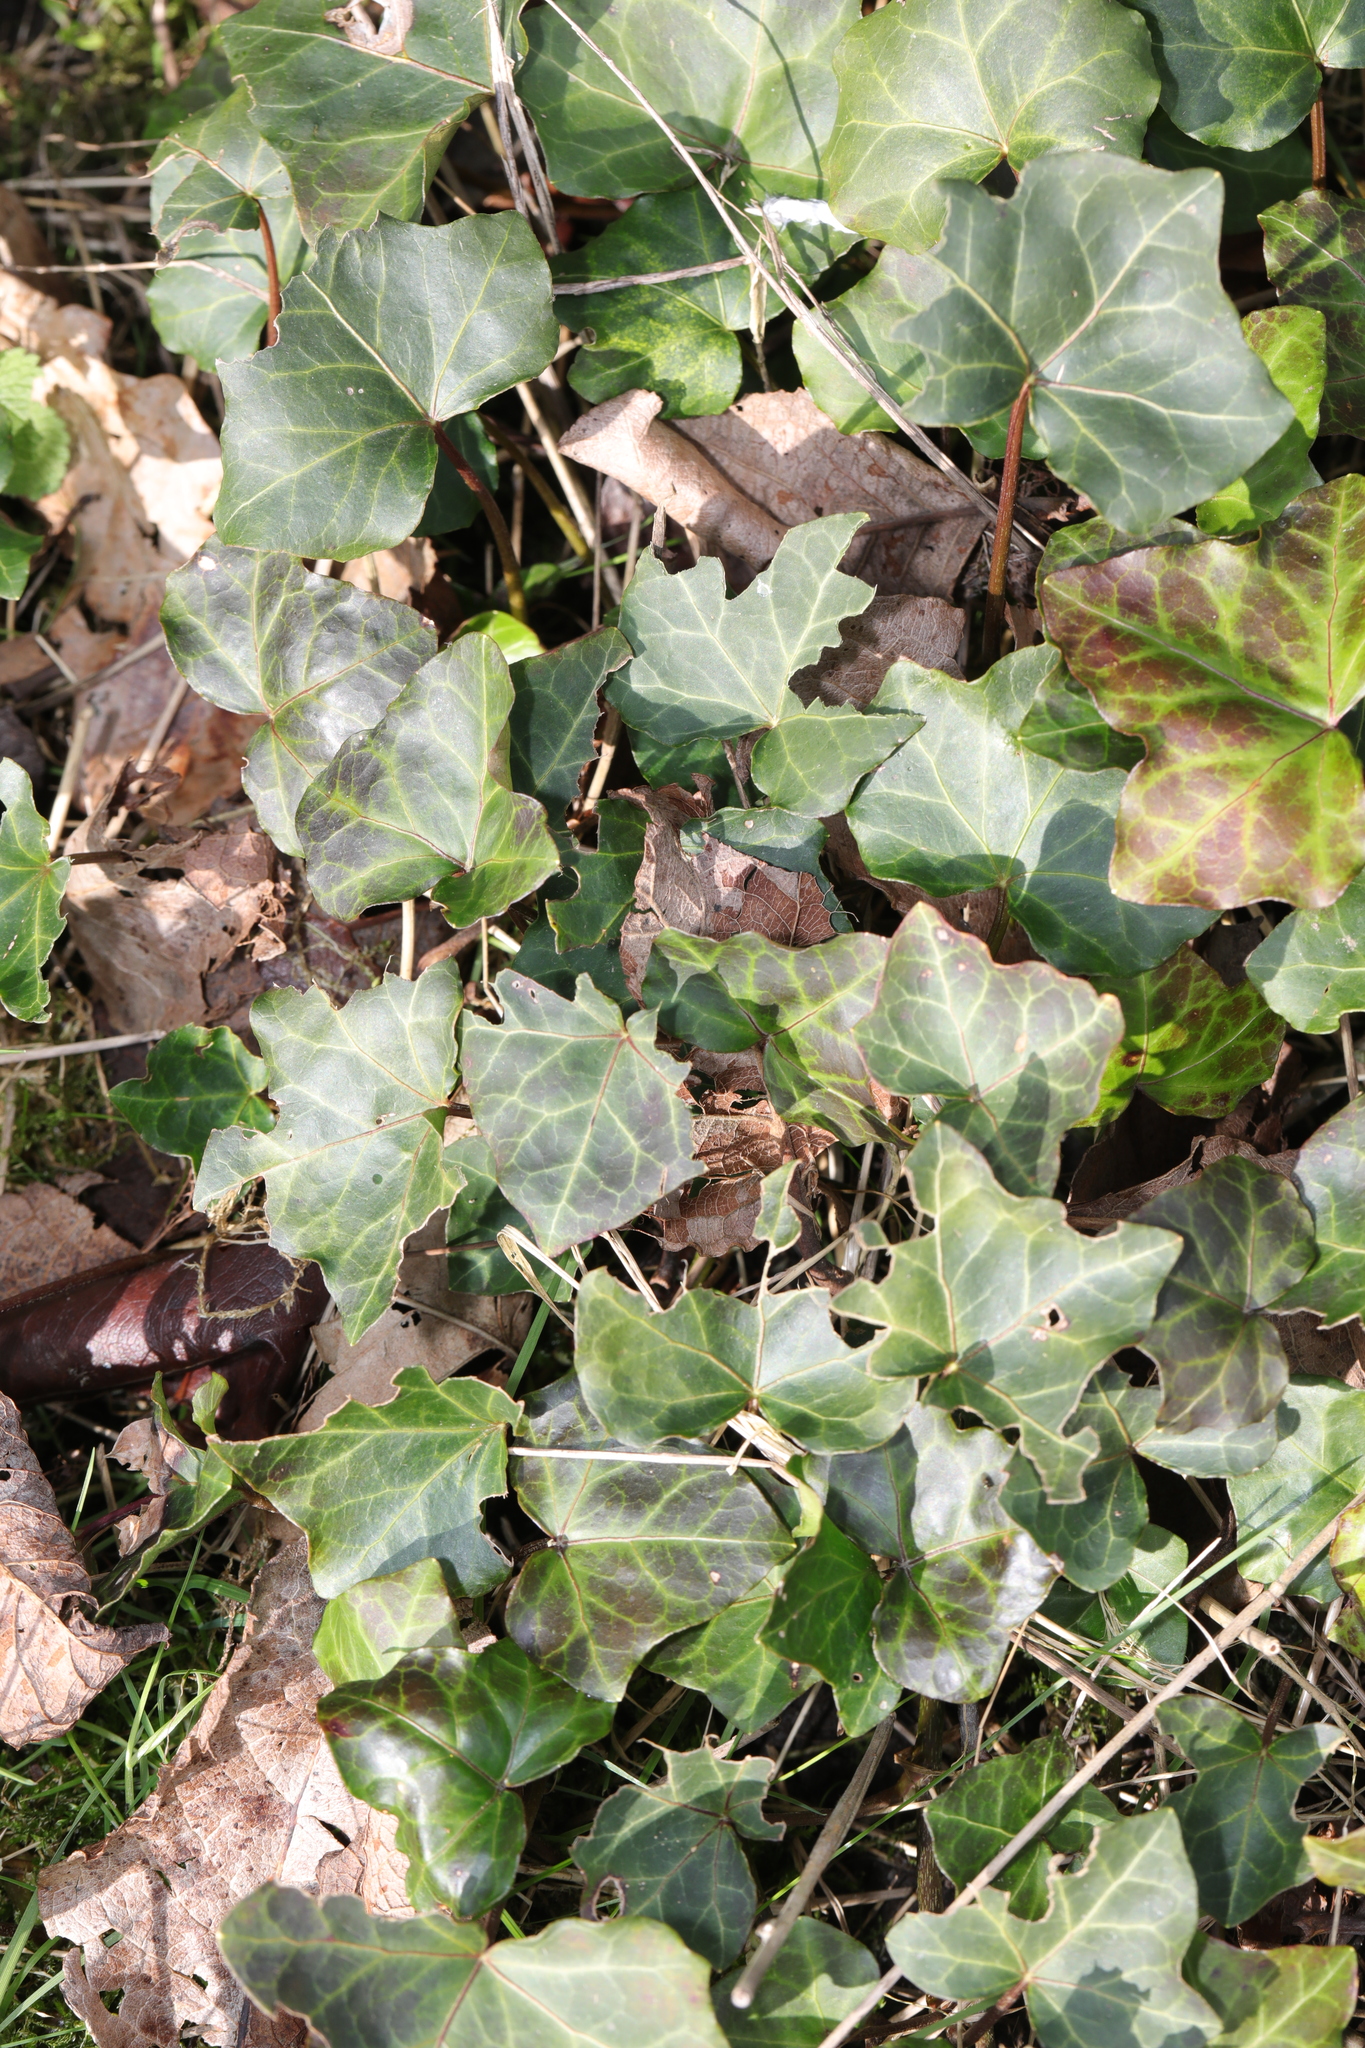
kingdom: Plantae
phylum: Tracheophyta
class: Magnoliopsida
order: Apiales
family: Araliaceae
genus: Hedera
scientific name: Hedera helix
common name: Ivy
